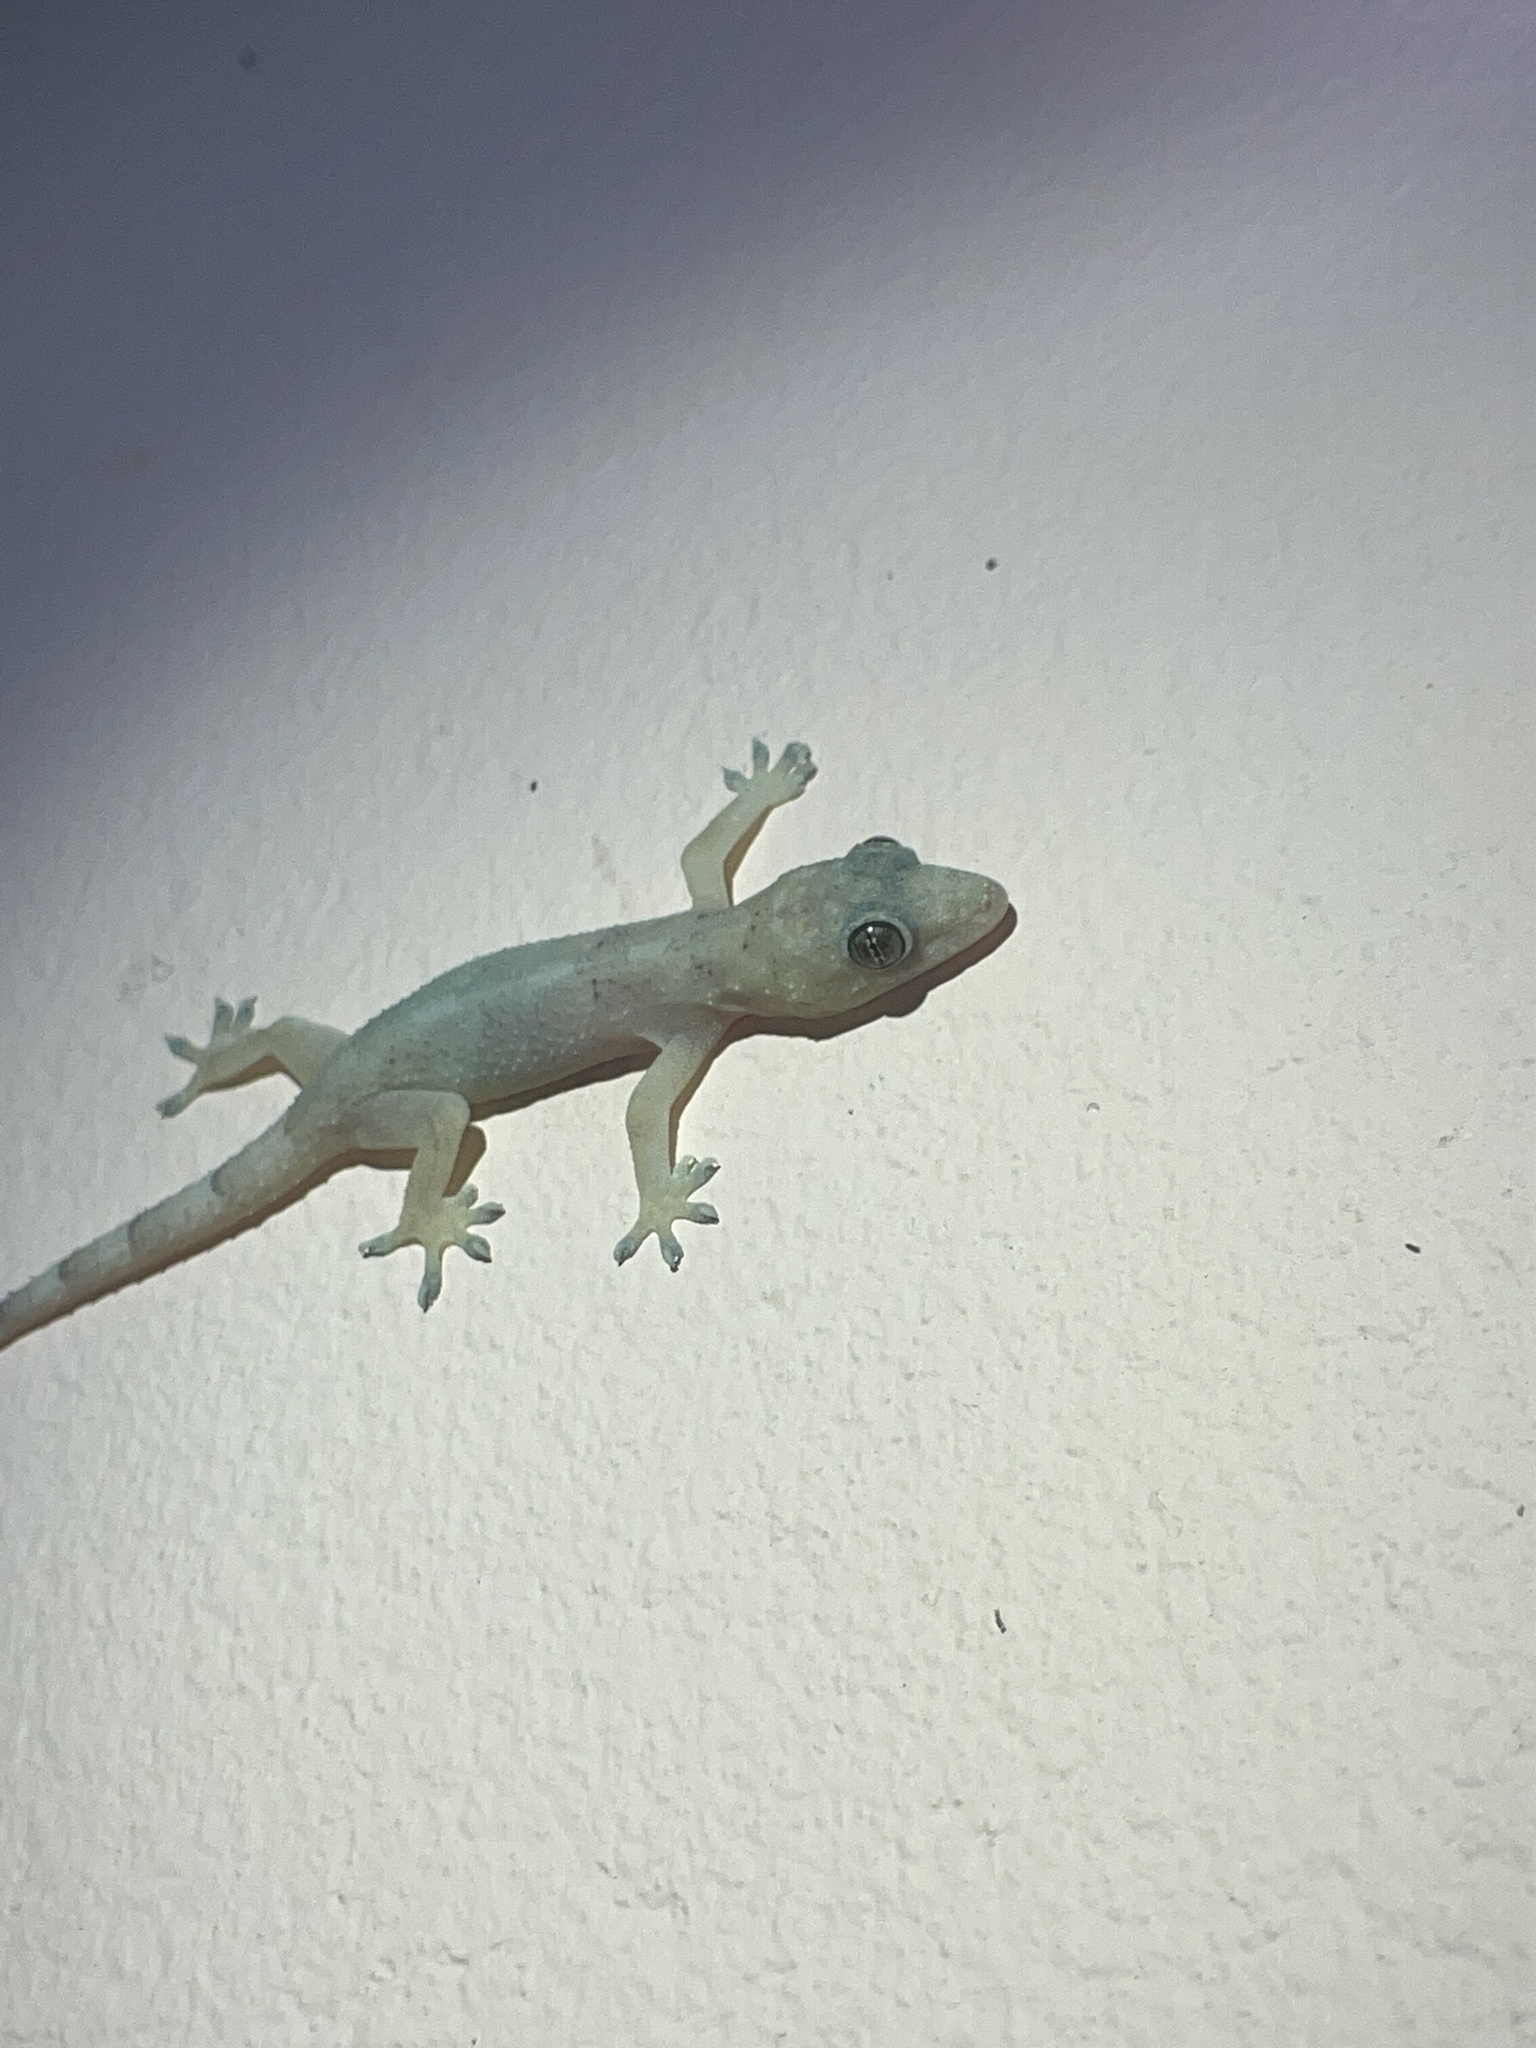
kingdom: Animalia
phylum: Chordata
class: Squamata
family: Gekkonidae
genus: Hemidactylus
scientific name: Hemidactylus mabouia
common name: House gecko
